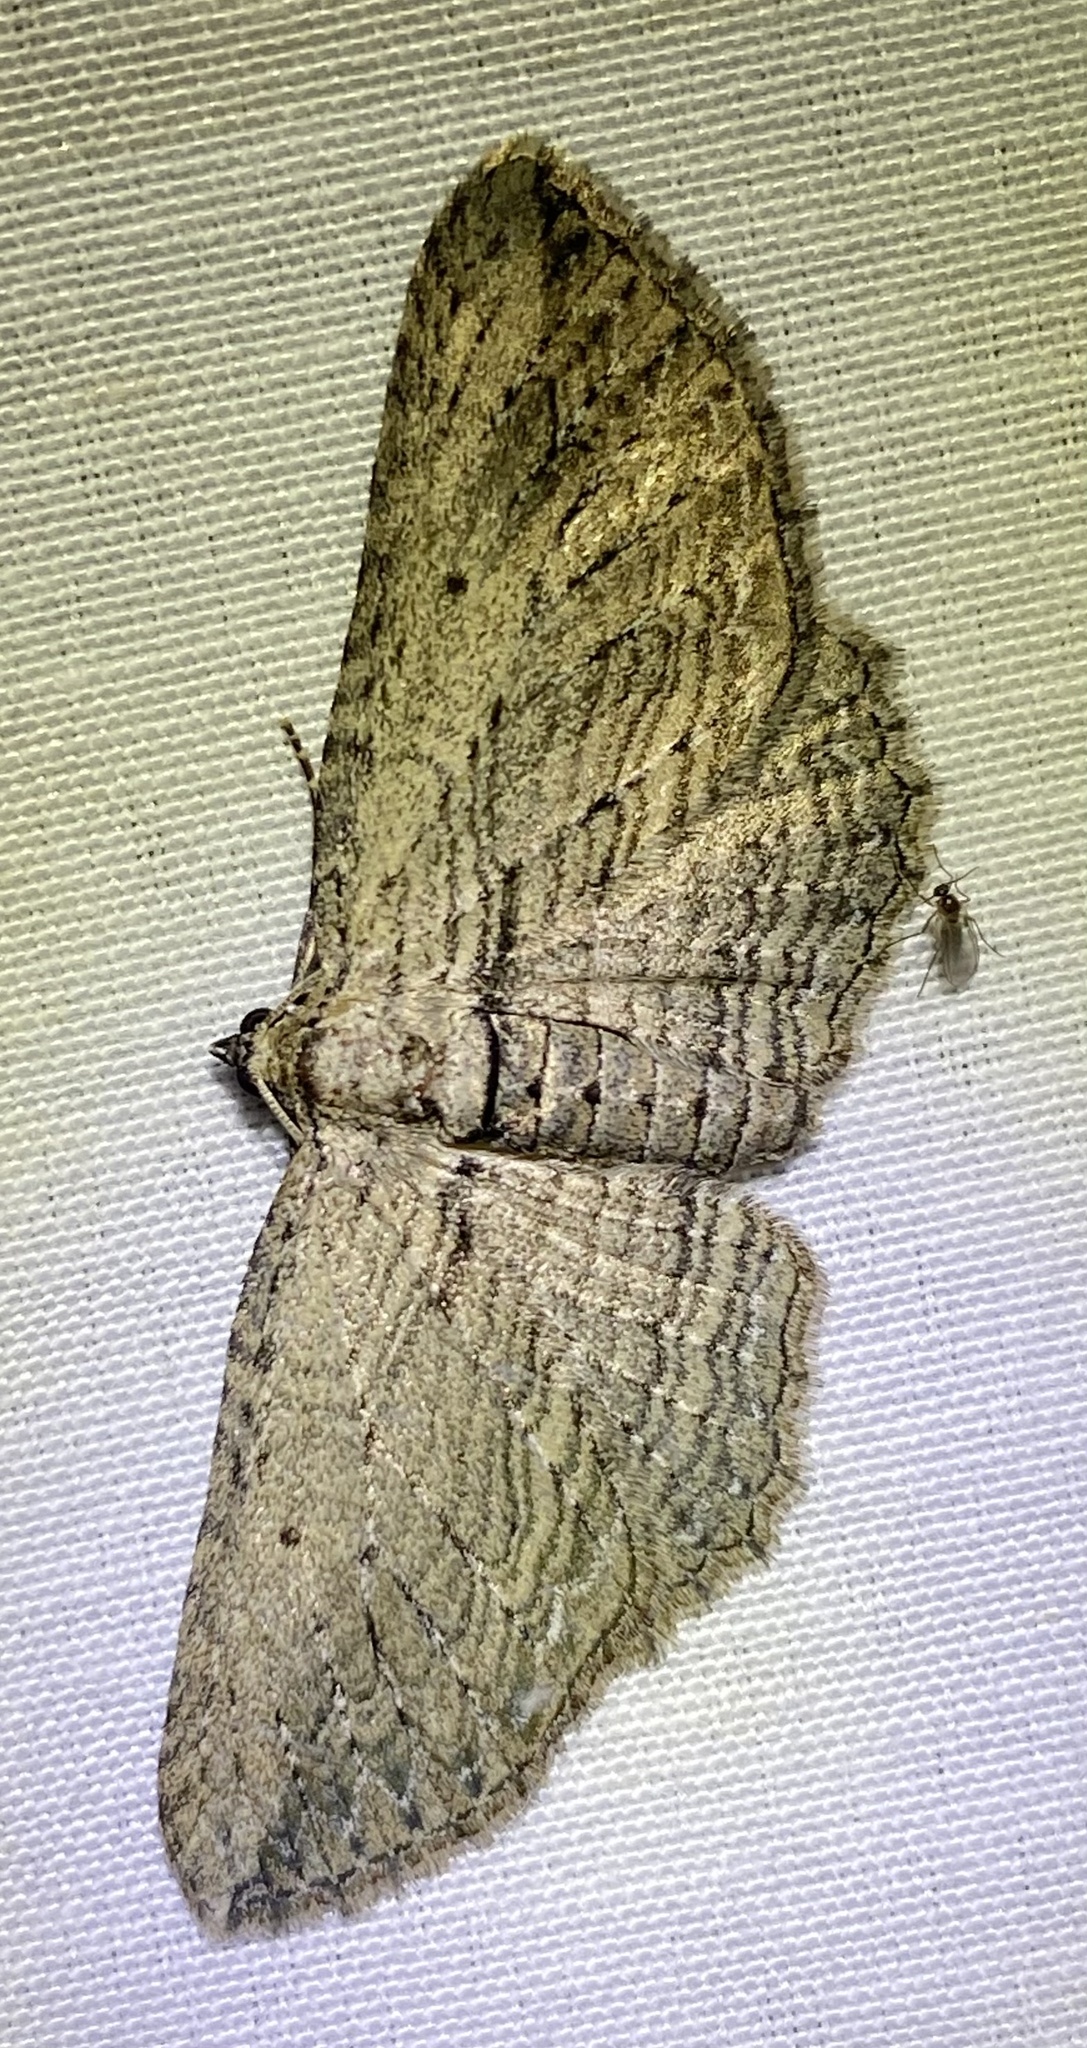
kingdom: Animalia
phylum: Arthropoda
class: Insecta
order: Lepidoptera
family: Geometridae
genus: Horisme
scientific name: Horisme intestinata
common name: Brown bark carpet
